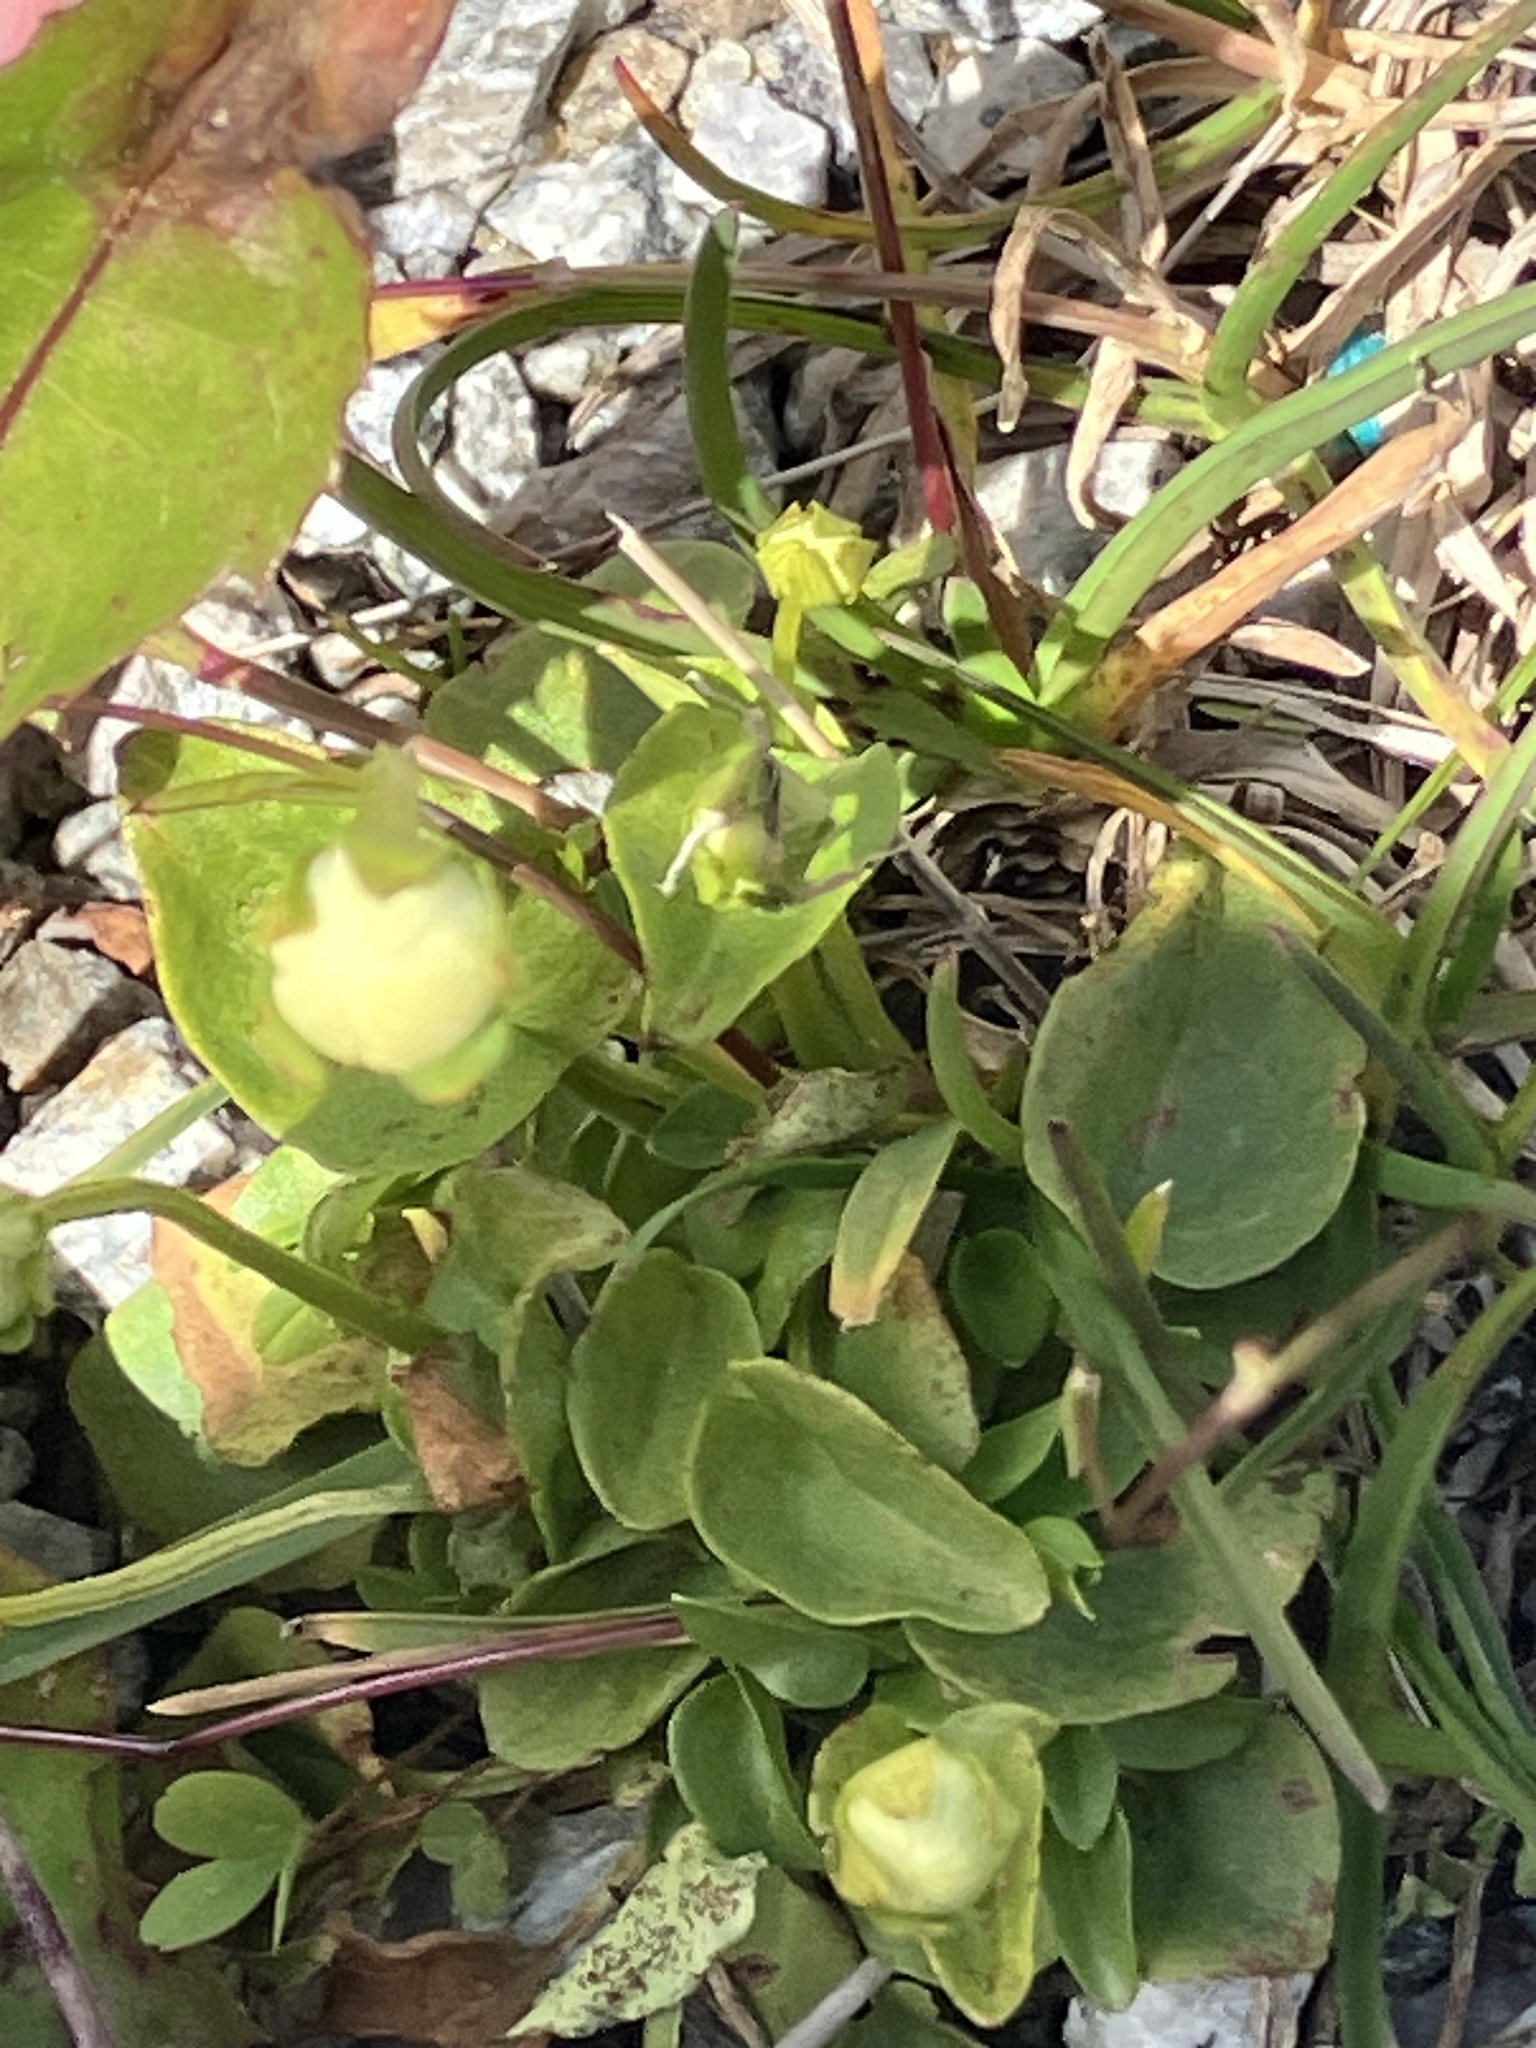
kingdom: Plantae
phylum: Tracheophyta
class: Magnoliopsida
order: Celastrales
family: Parnassiaceae
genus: Parnassia
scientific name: Parnassia palustris
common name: Grass-of-parnassus
